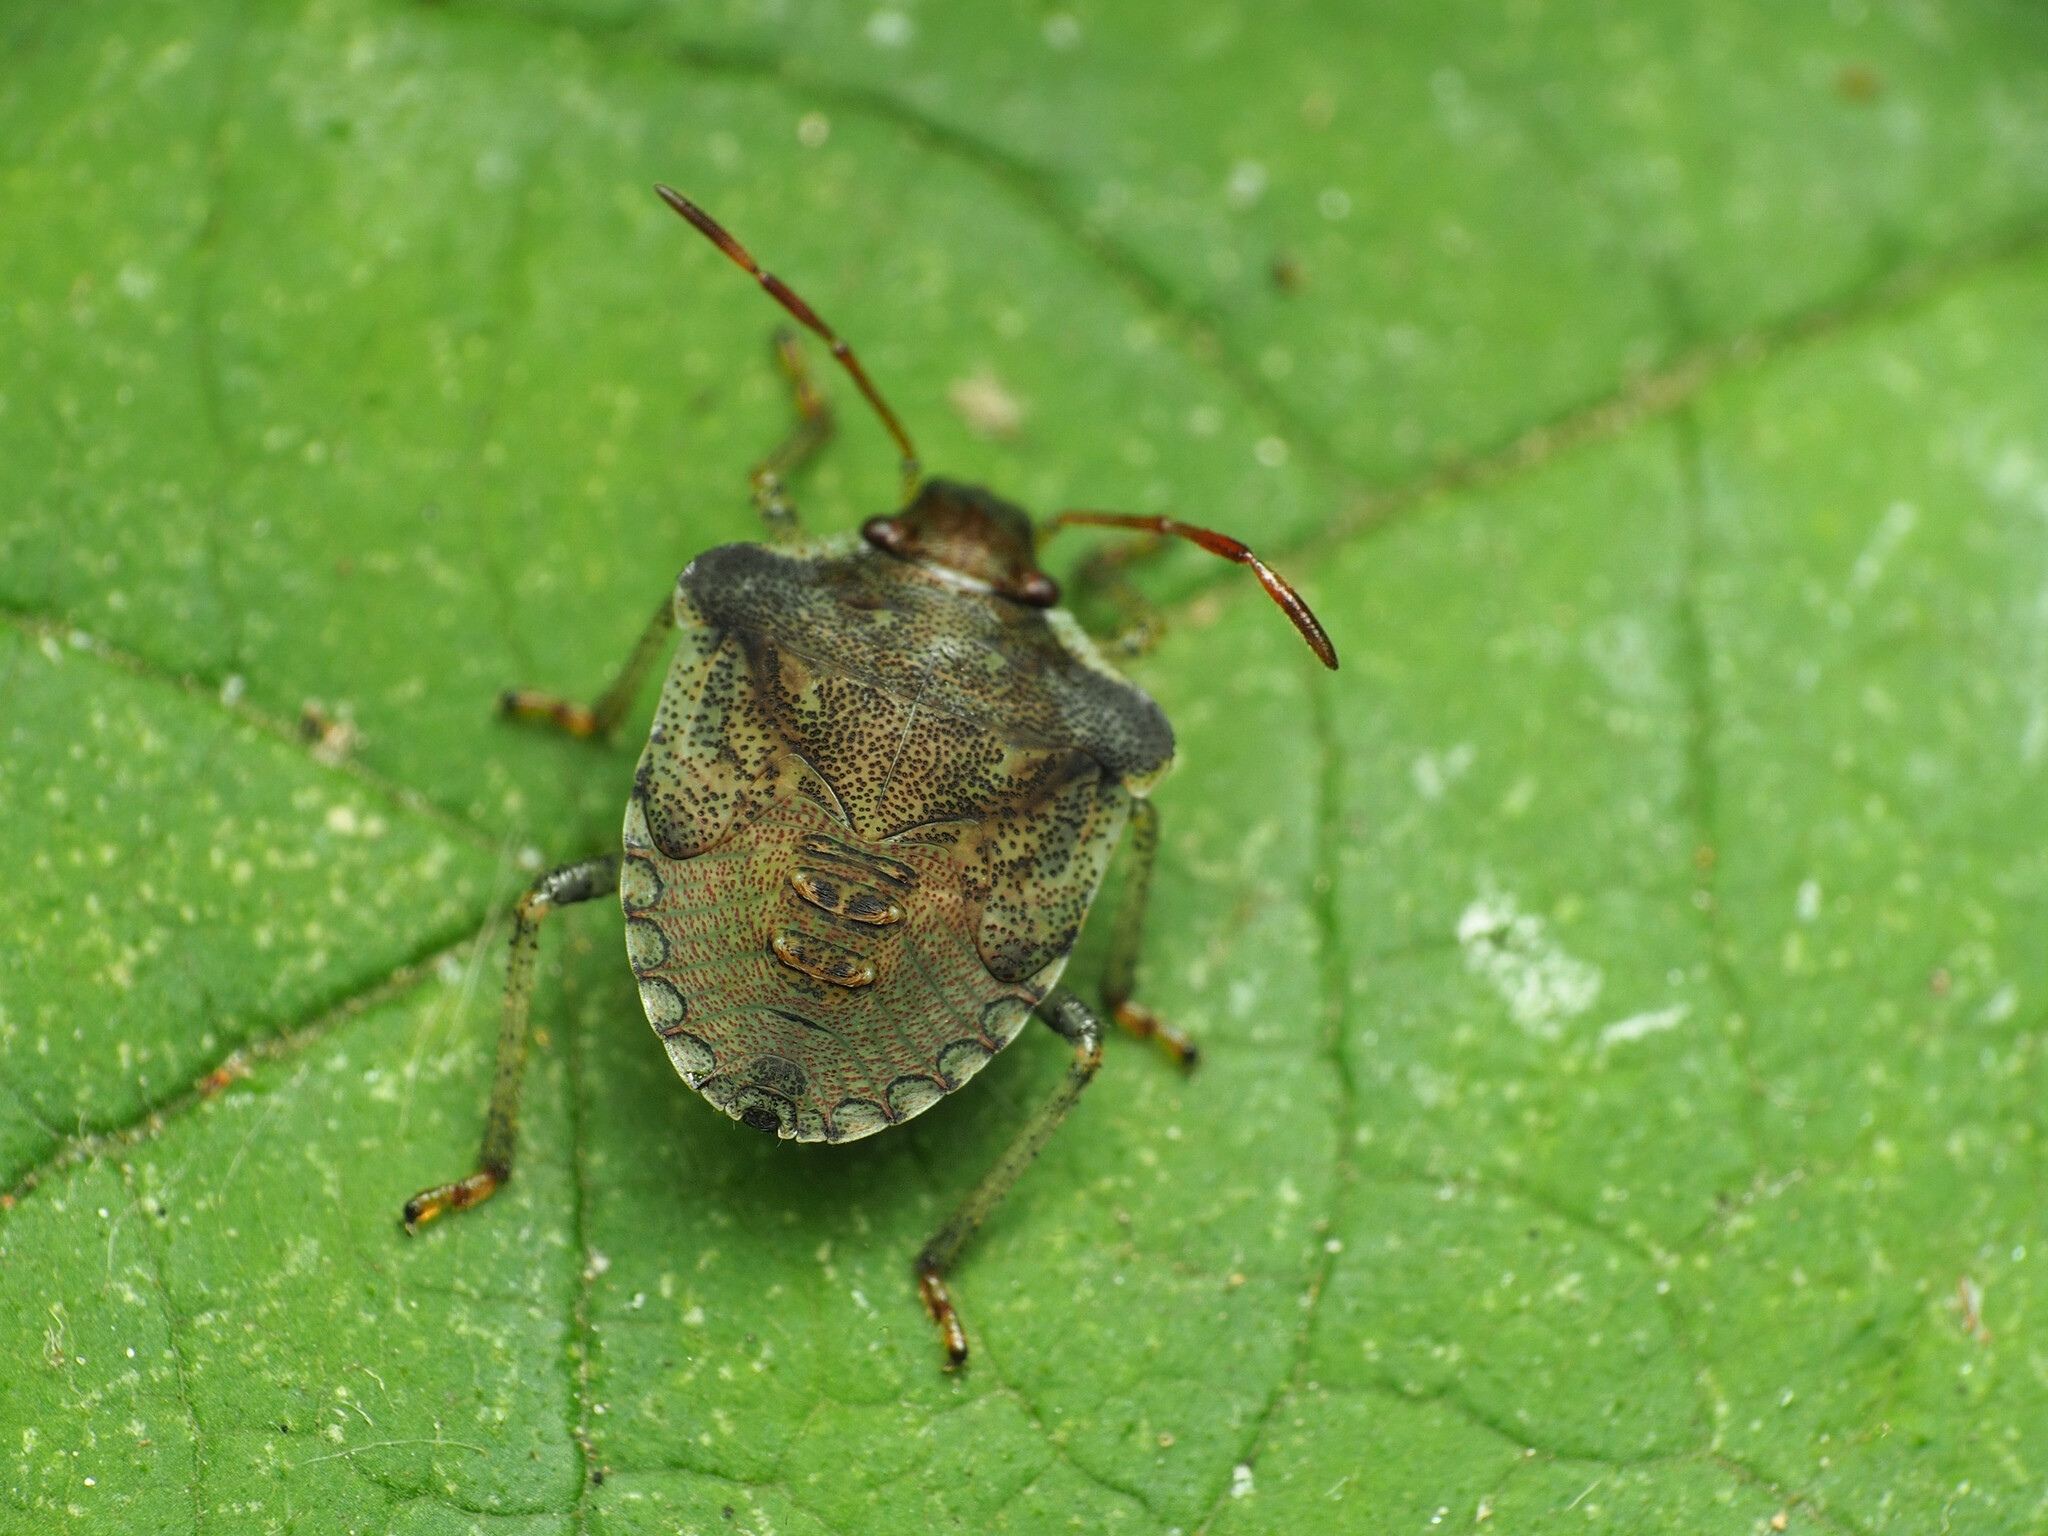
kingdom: Animalia
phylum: Arthropoda
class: Insecta
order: Hemiptera
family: Pentatomidae
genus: Euschistus
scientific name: Euschistus
